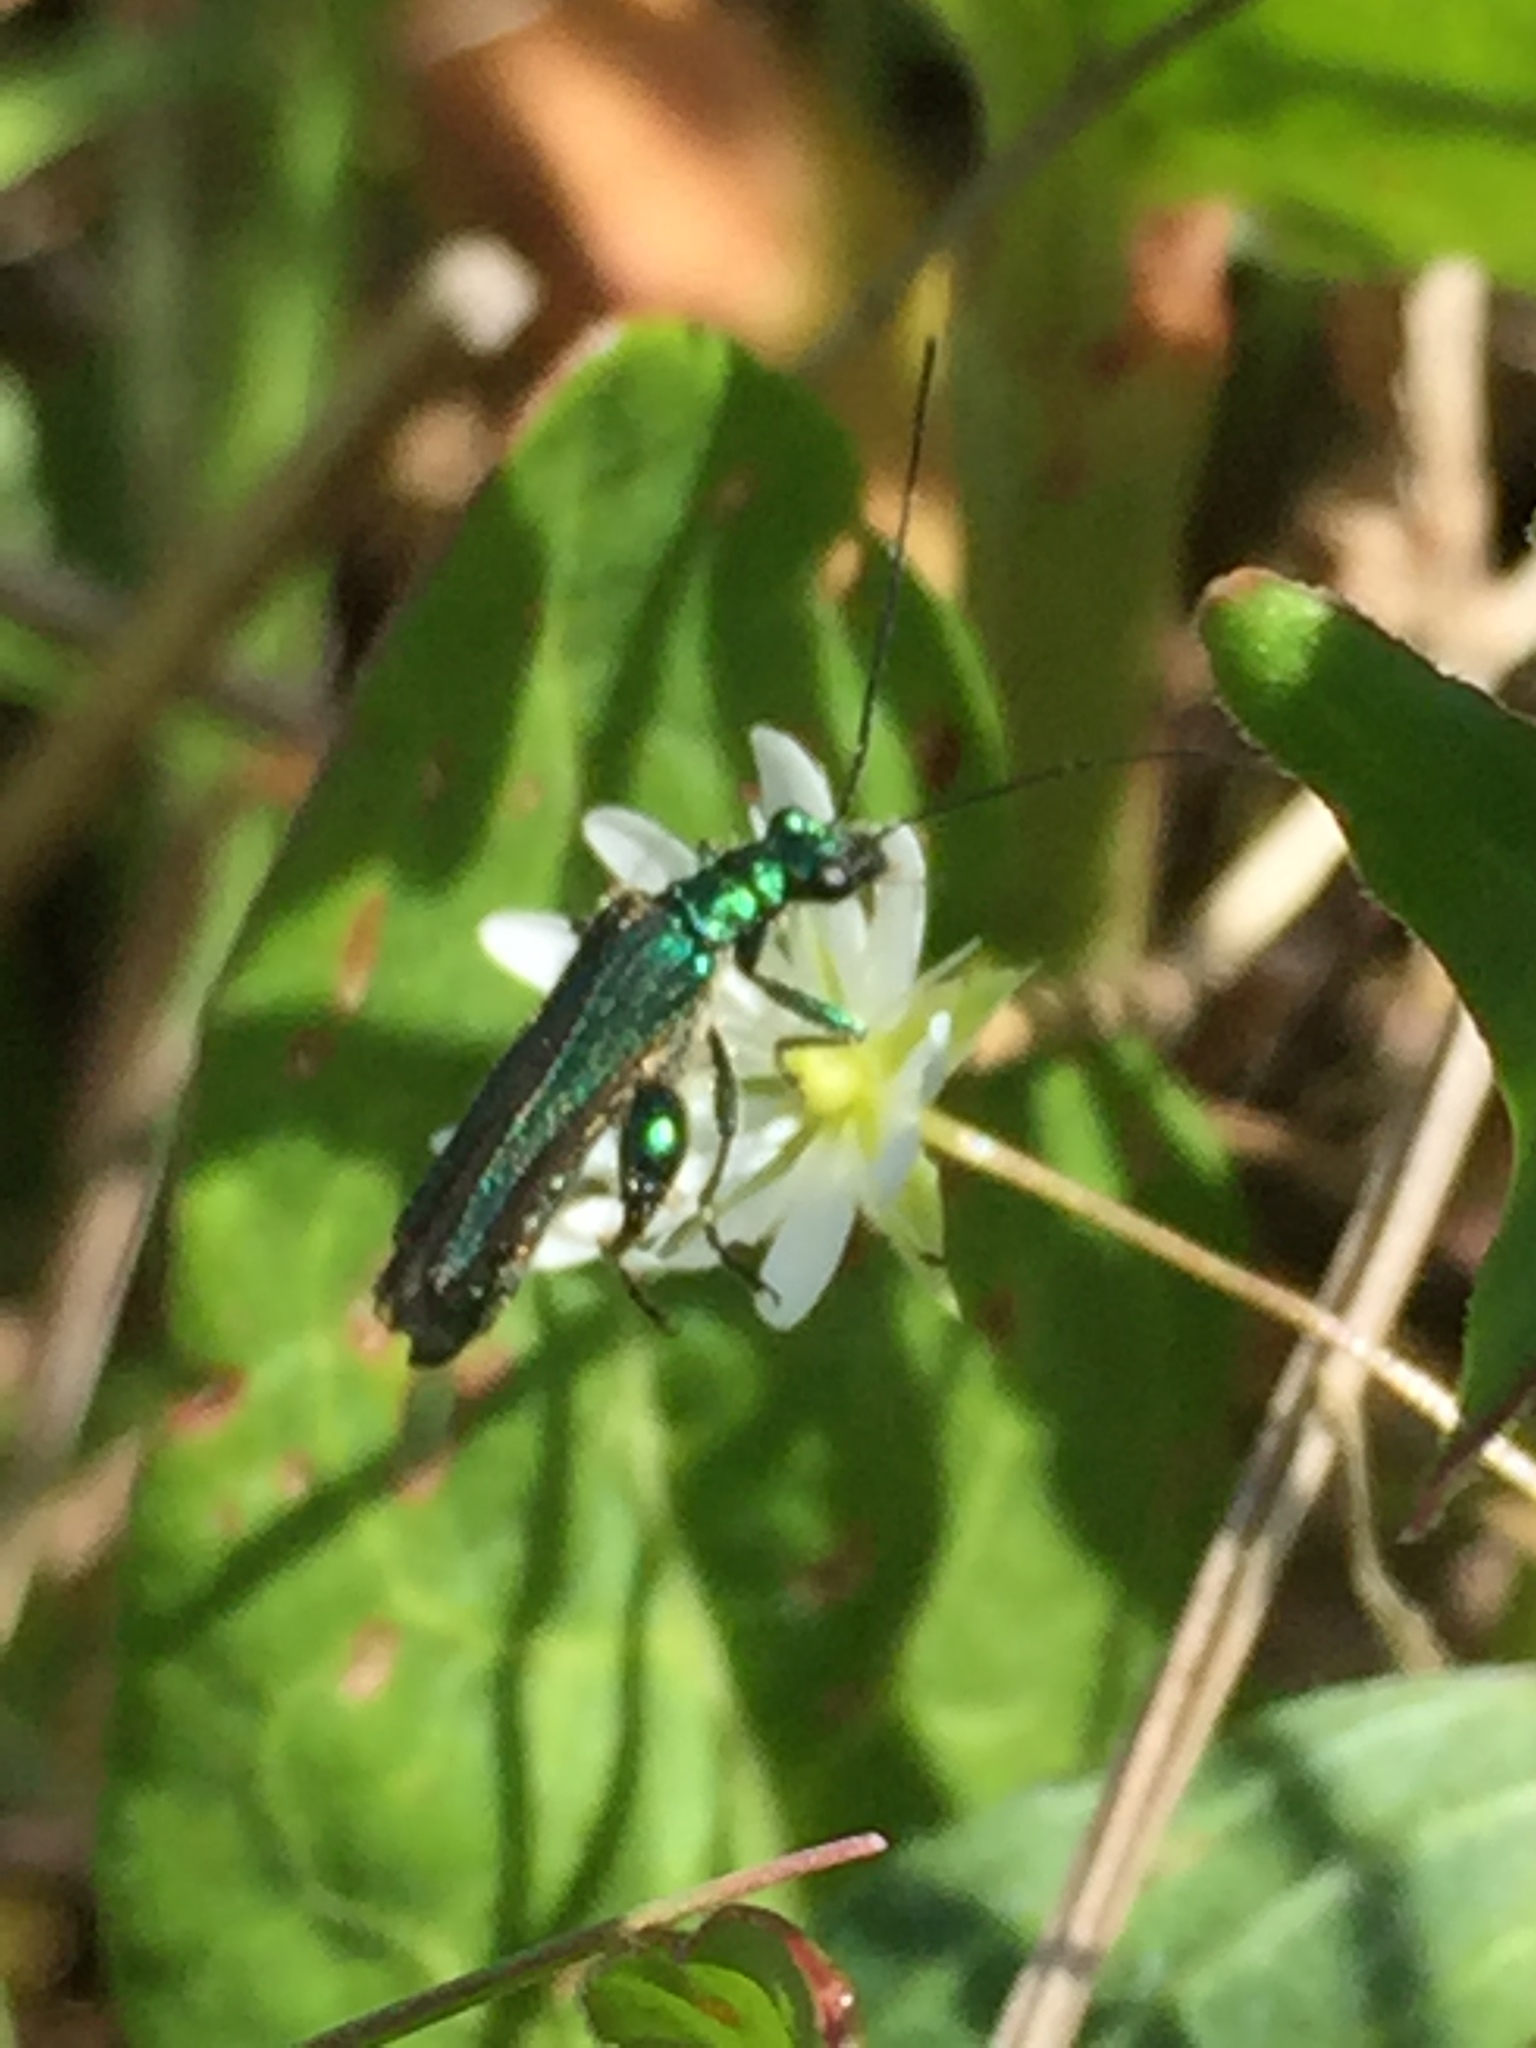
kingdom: Animalia
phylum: Arthropoda
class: Insecta
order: Coleoptera
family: Oedemeridae
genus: Oedemera
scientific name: Oedemera nobilis
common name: Swollen-thighed beetle
